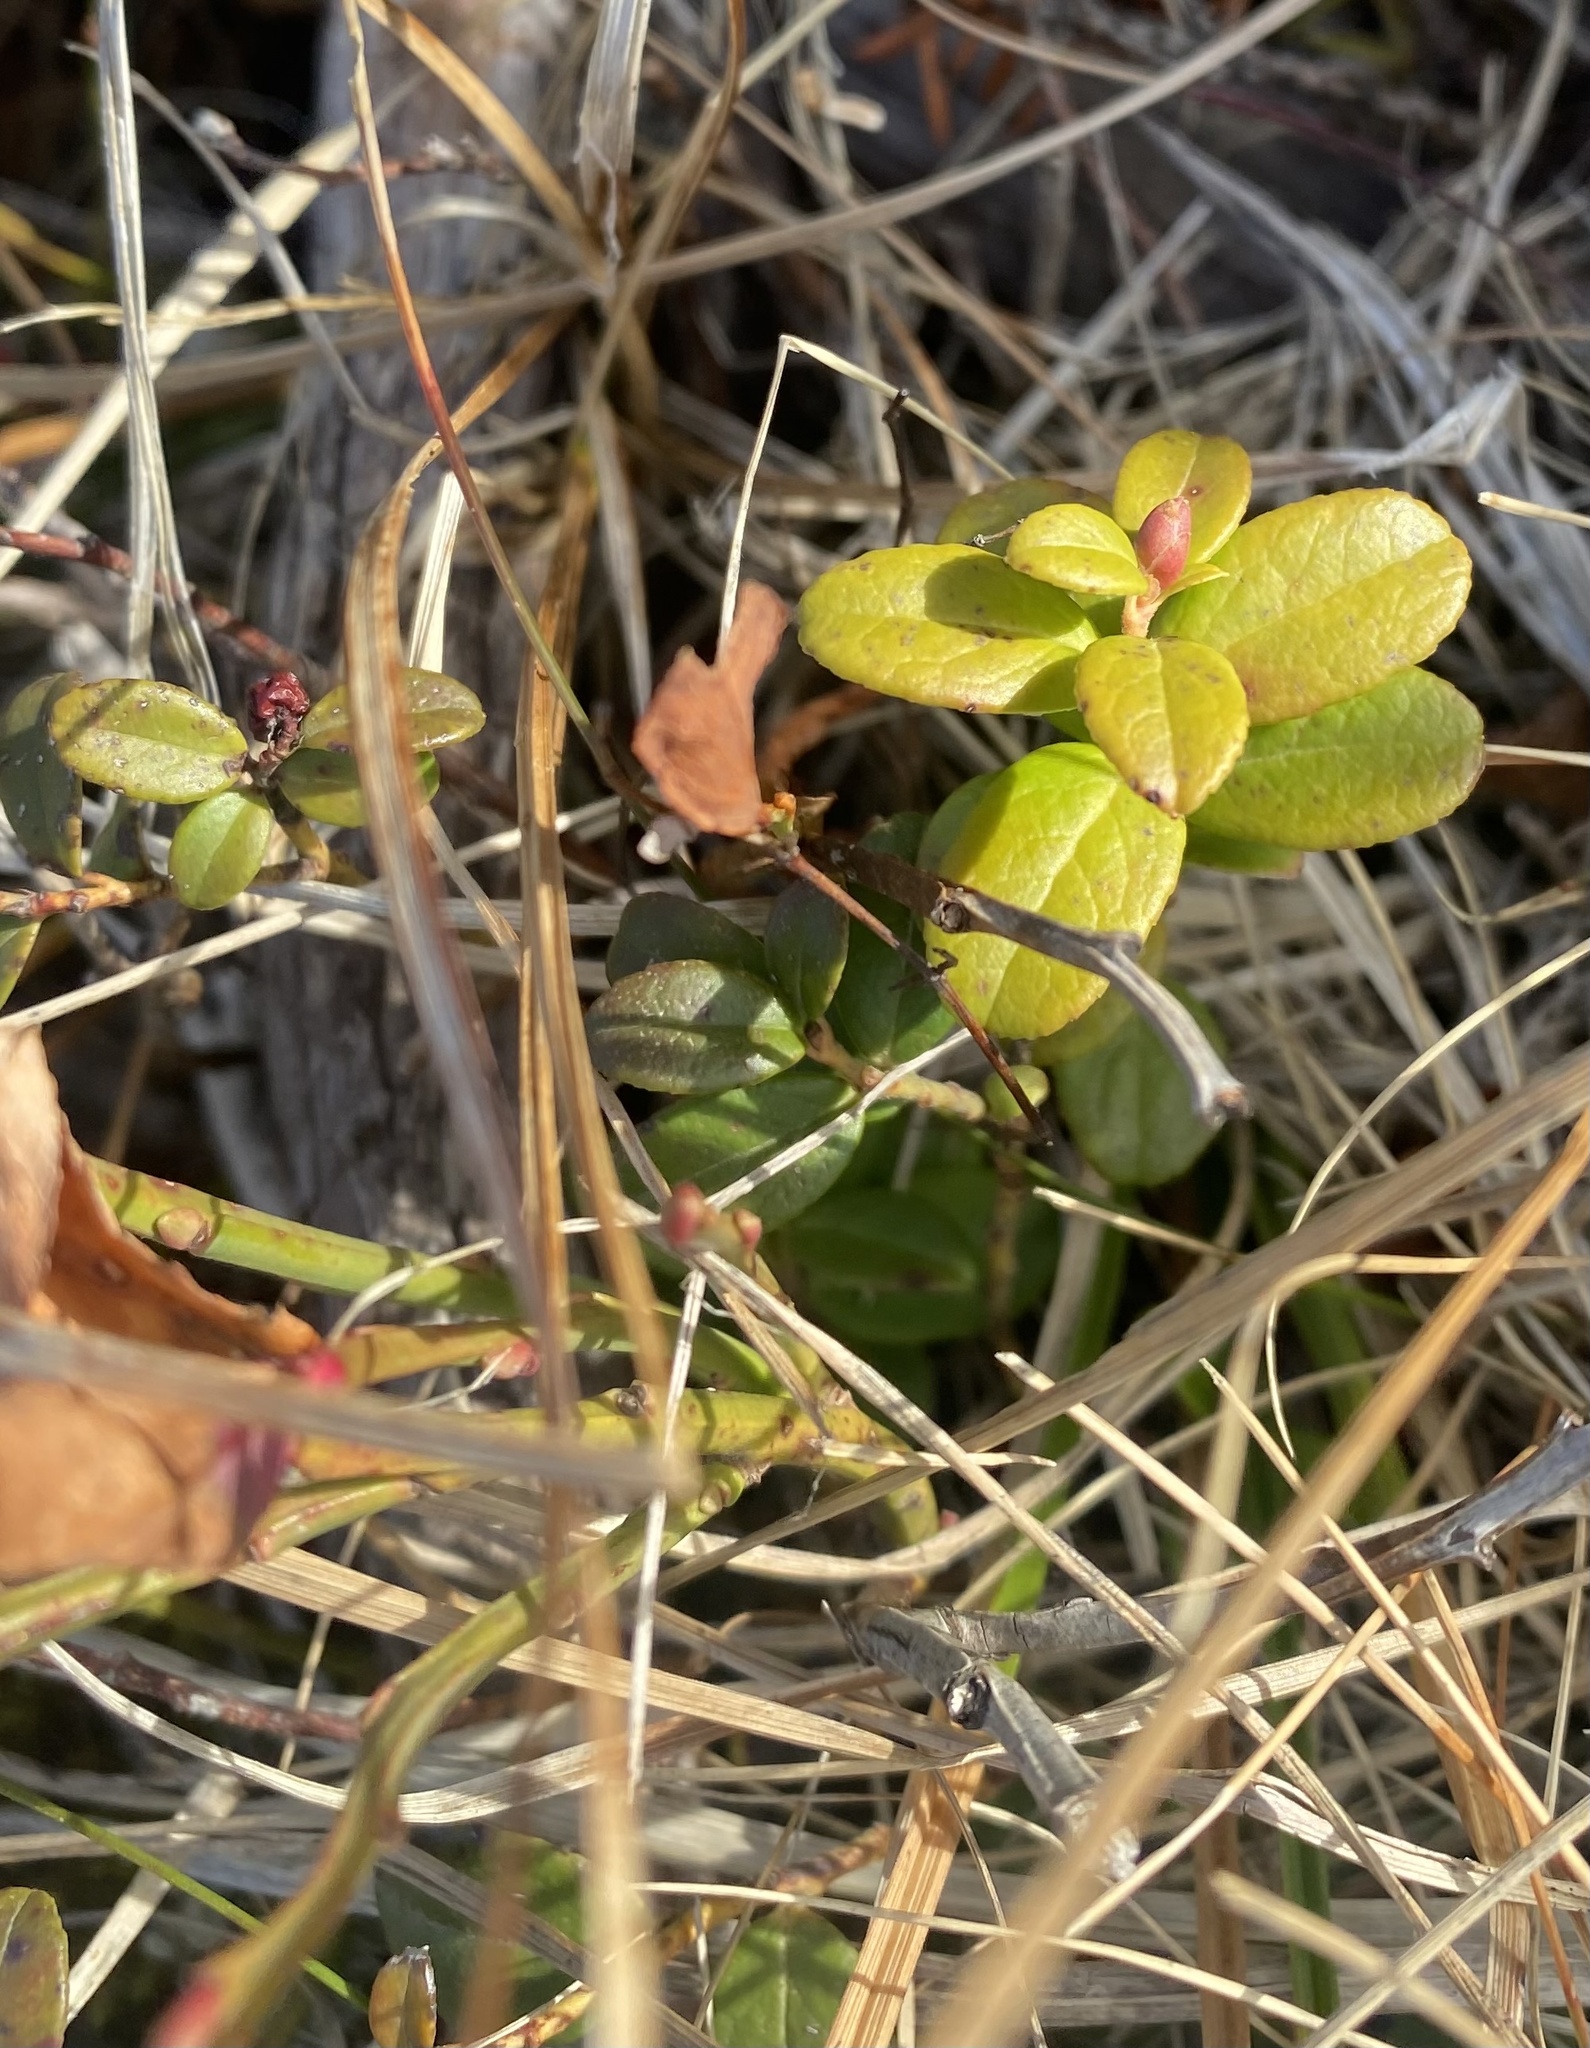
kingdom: Plantae
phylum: Tracheophyta
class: Magnoliopsida
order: Ericales
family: Ericaceae
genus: Vaccinium
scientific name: Vaccinium vitis-idaea
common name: Cowberry
